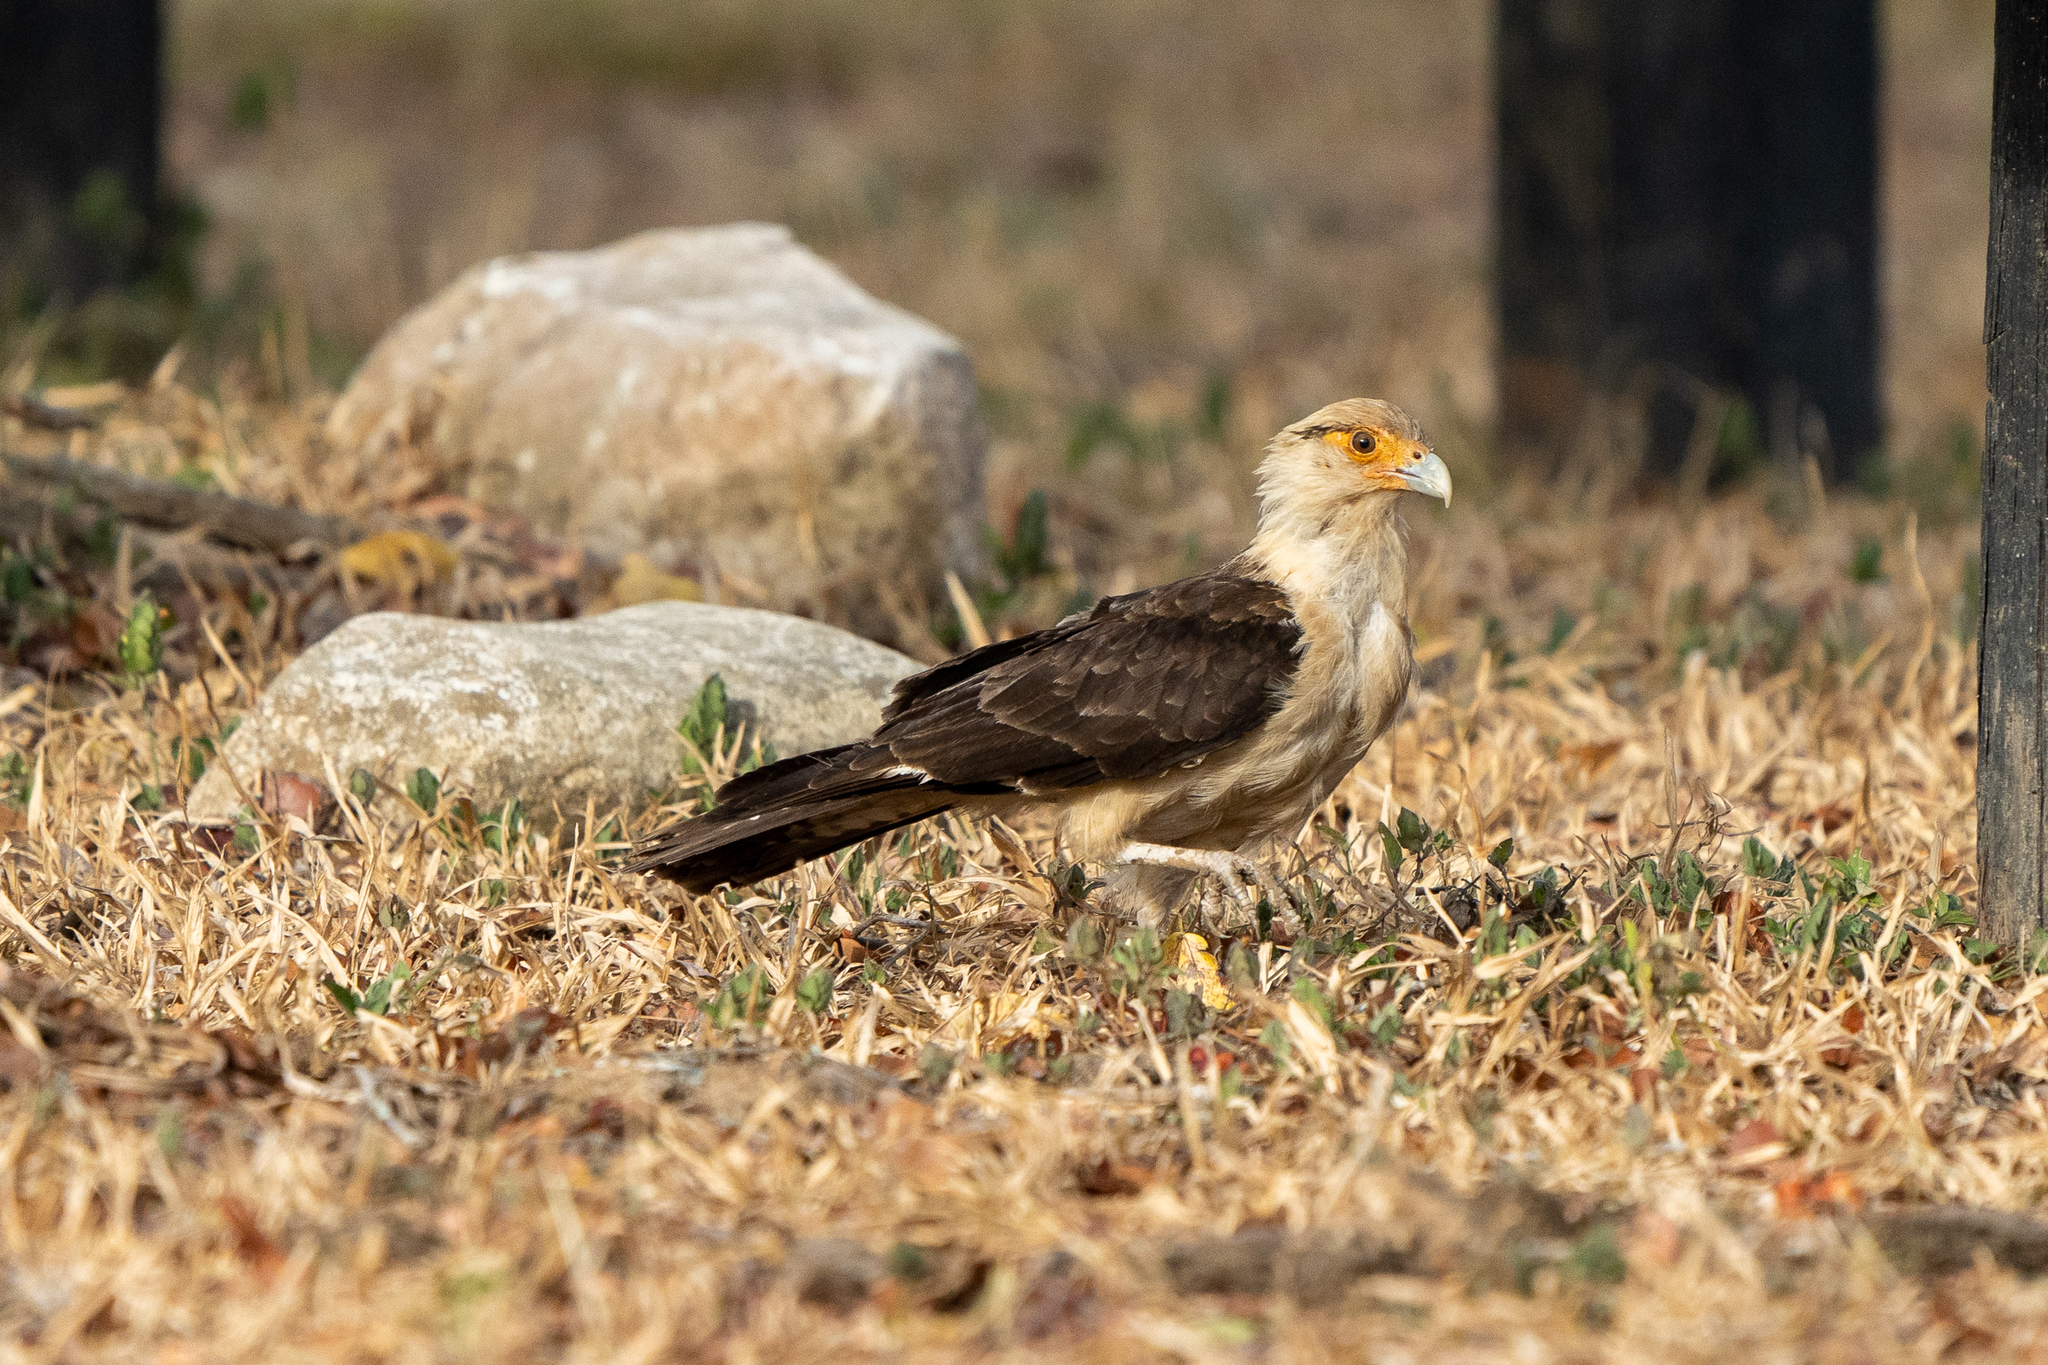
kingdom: Animalia
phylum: Chordata
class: Aves
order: Falconiformes
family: Falconidae
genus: Daptrius
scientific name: Daptrius
